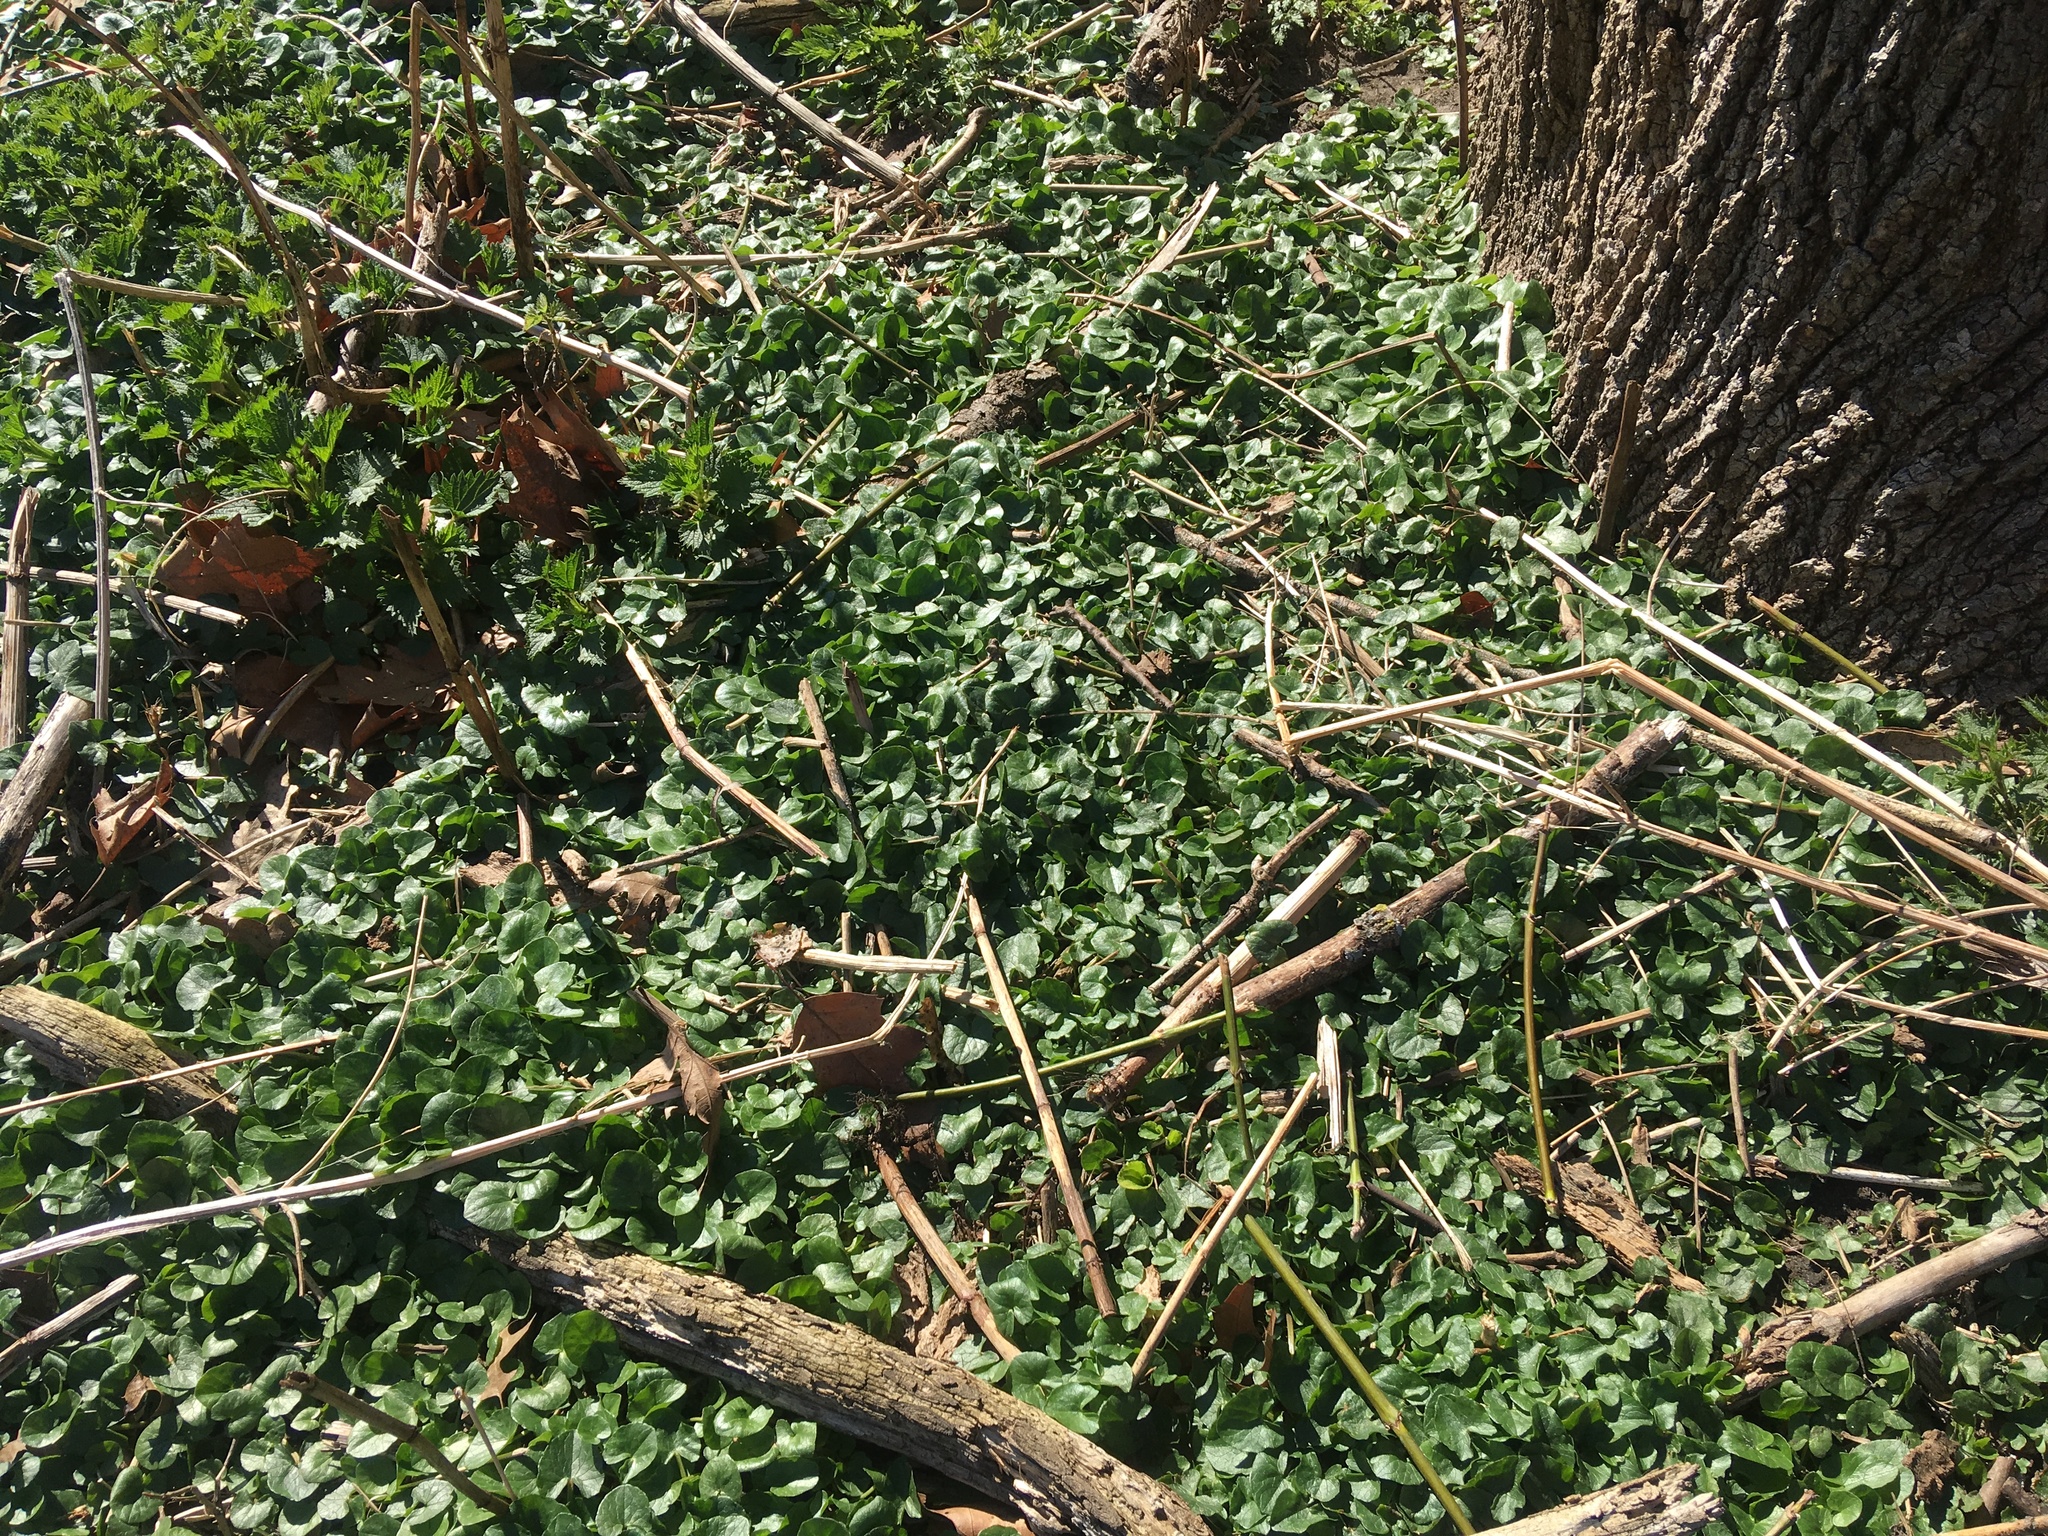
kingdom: Plantae
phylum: Tracheophyta
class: Magnoliopsida
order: Ranunculales
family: Ranunculaceae
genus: Ficaria
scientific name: Ficaria verna
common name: Lesser celandine
